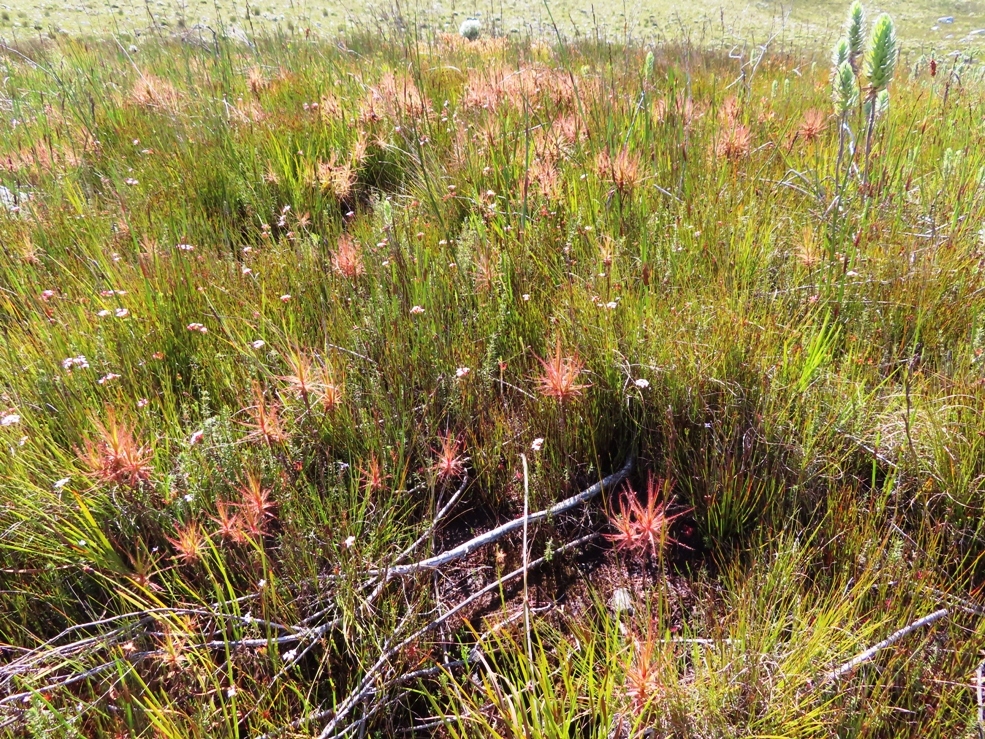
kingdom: Plantae
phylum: Tracheophyta
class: Magnoliopsida
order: Ericales
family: Roridulaceae
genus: Roridula
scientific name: Roridula gorgonias
